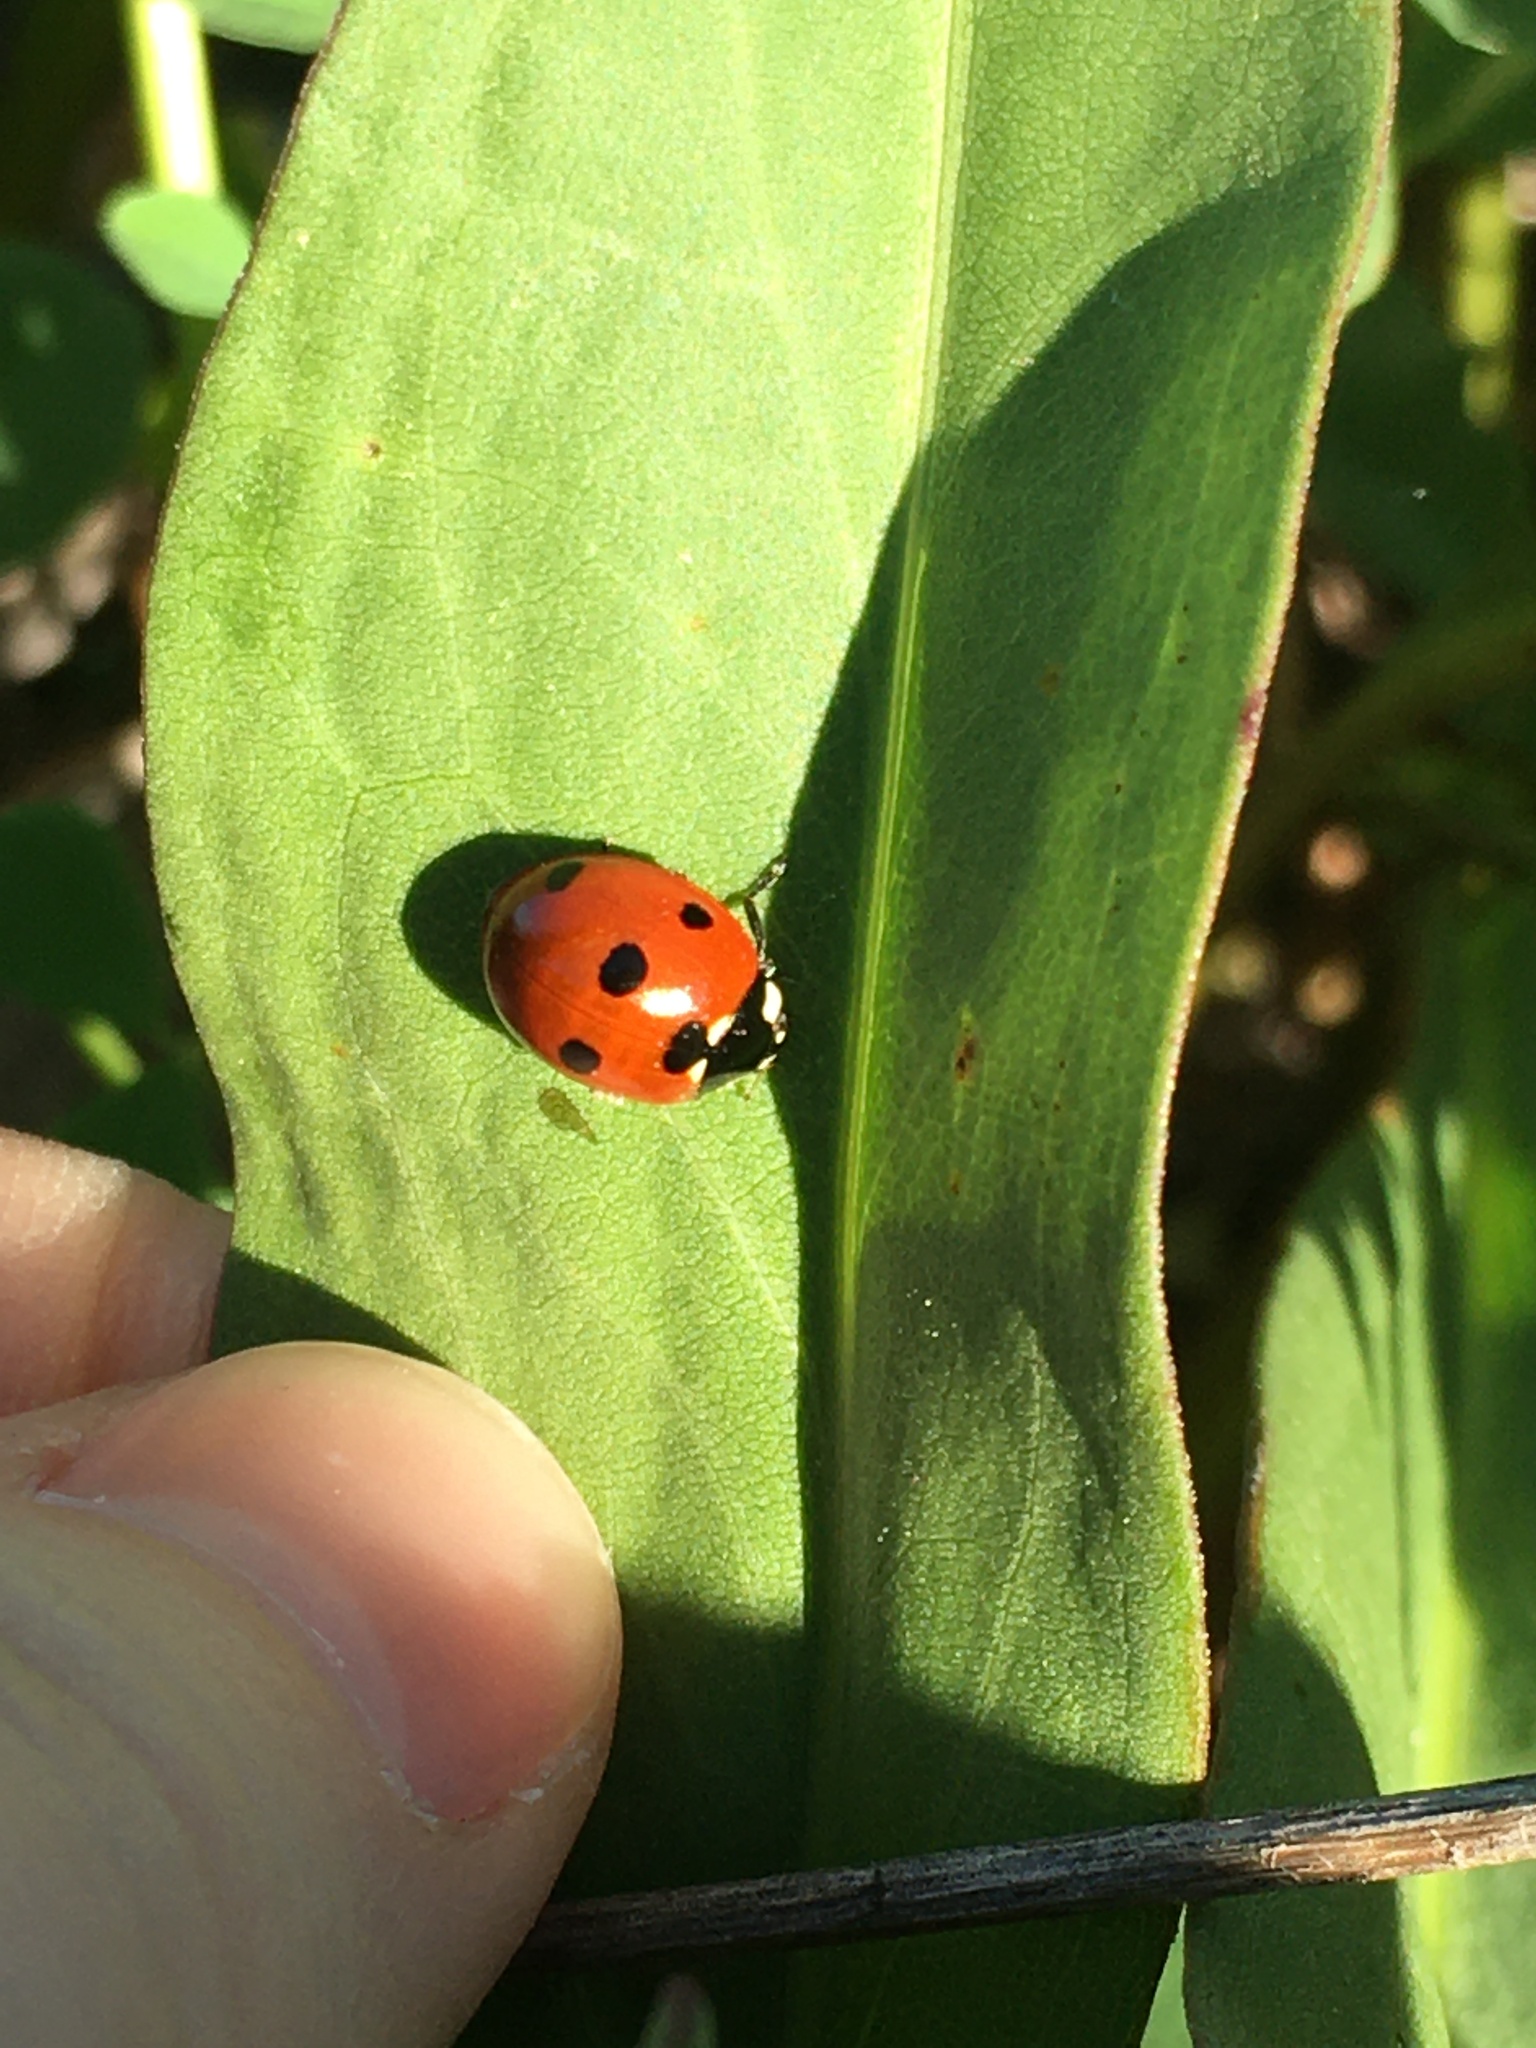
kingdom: Animalia
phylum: Arthropoda
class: Insecta
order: Coleoptera
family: Coccinellidae
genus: Coccinella
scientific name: Coccinella septempunctata
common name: Sevenspotted lady beetle
